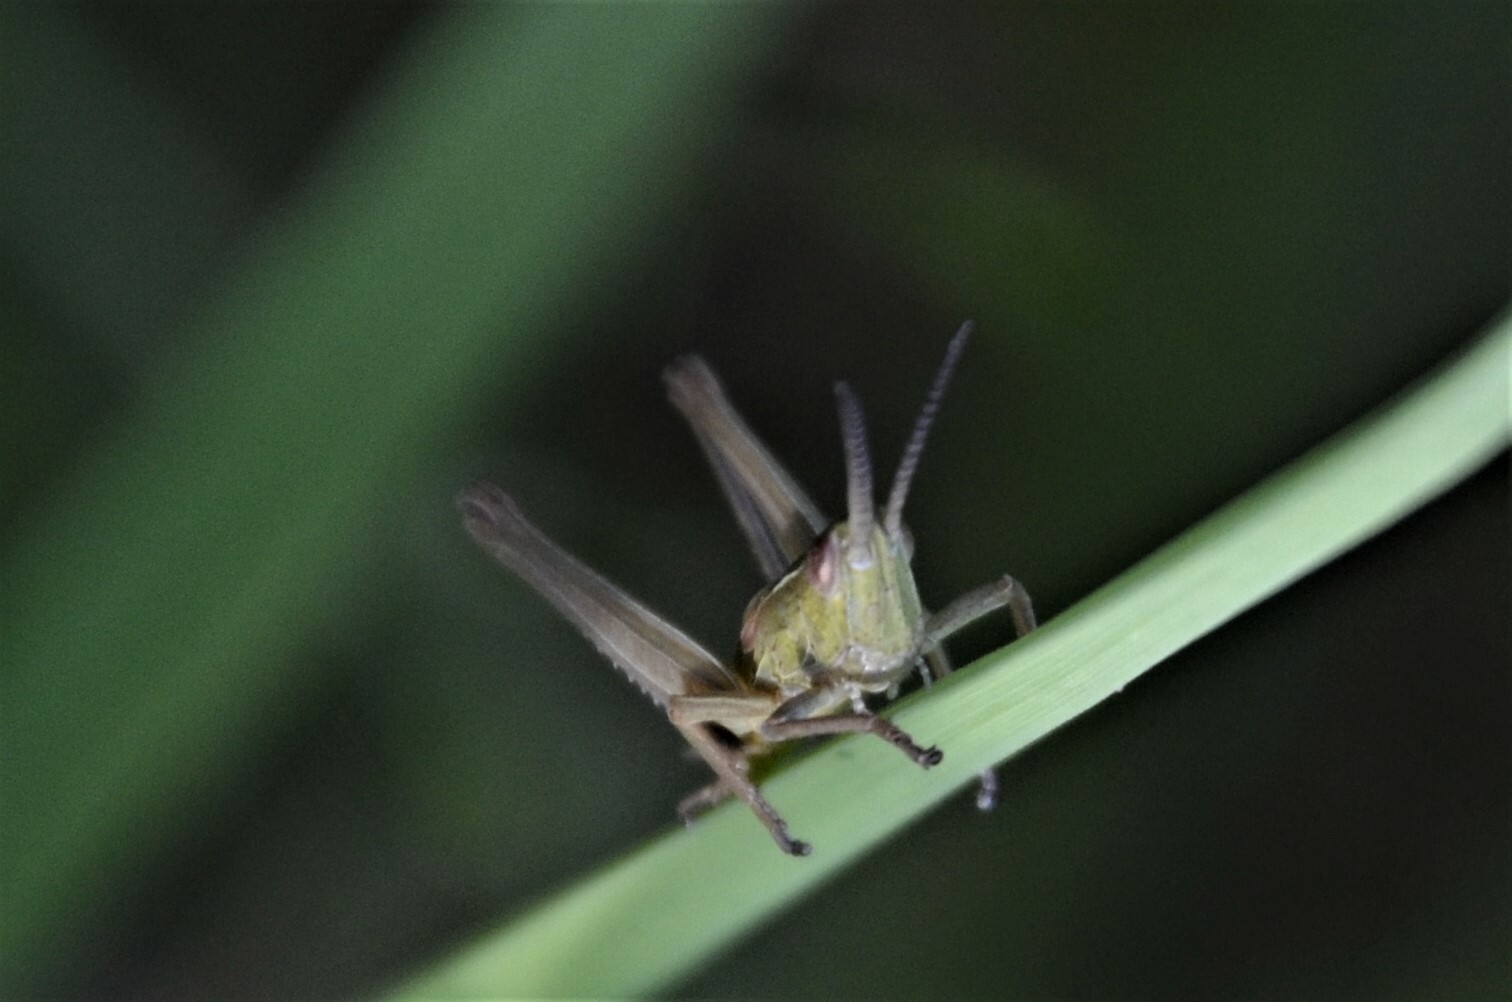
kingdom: Animalia
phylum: Arthropoda
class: Insecta
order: Orthoptera
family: Acrididae
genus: Euthystira
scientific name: Euthystira brachyptera
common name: Small gold grasshopper
